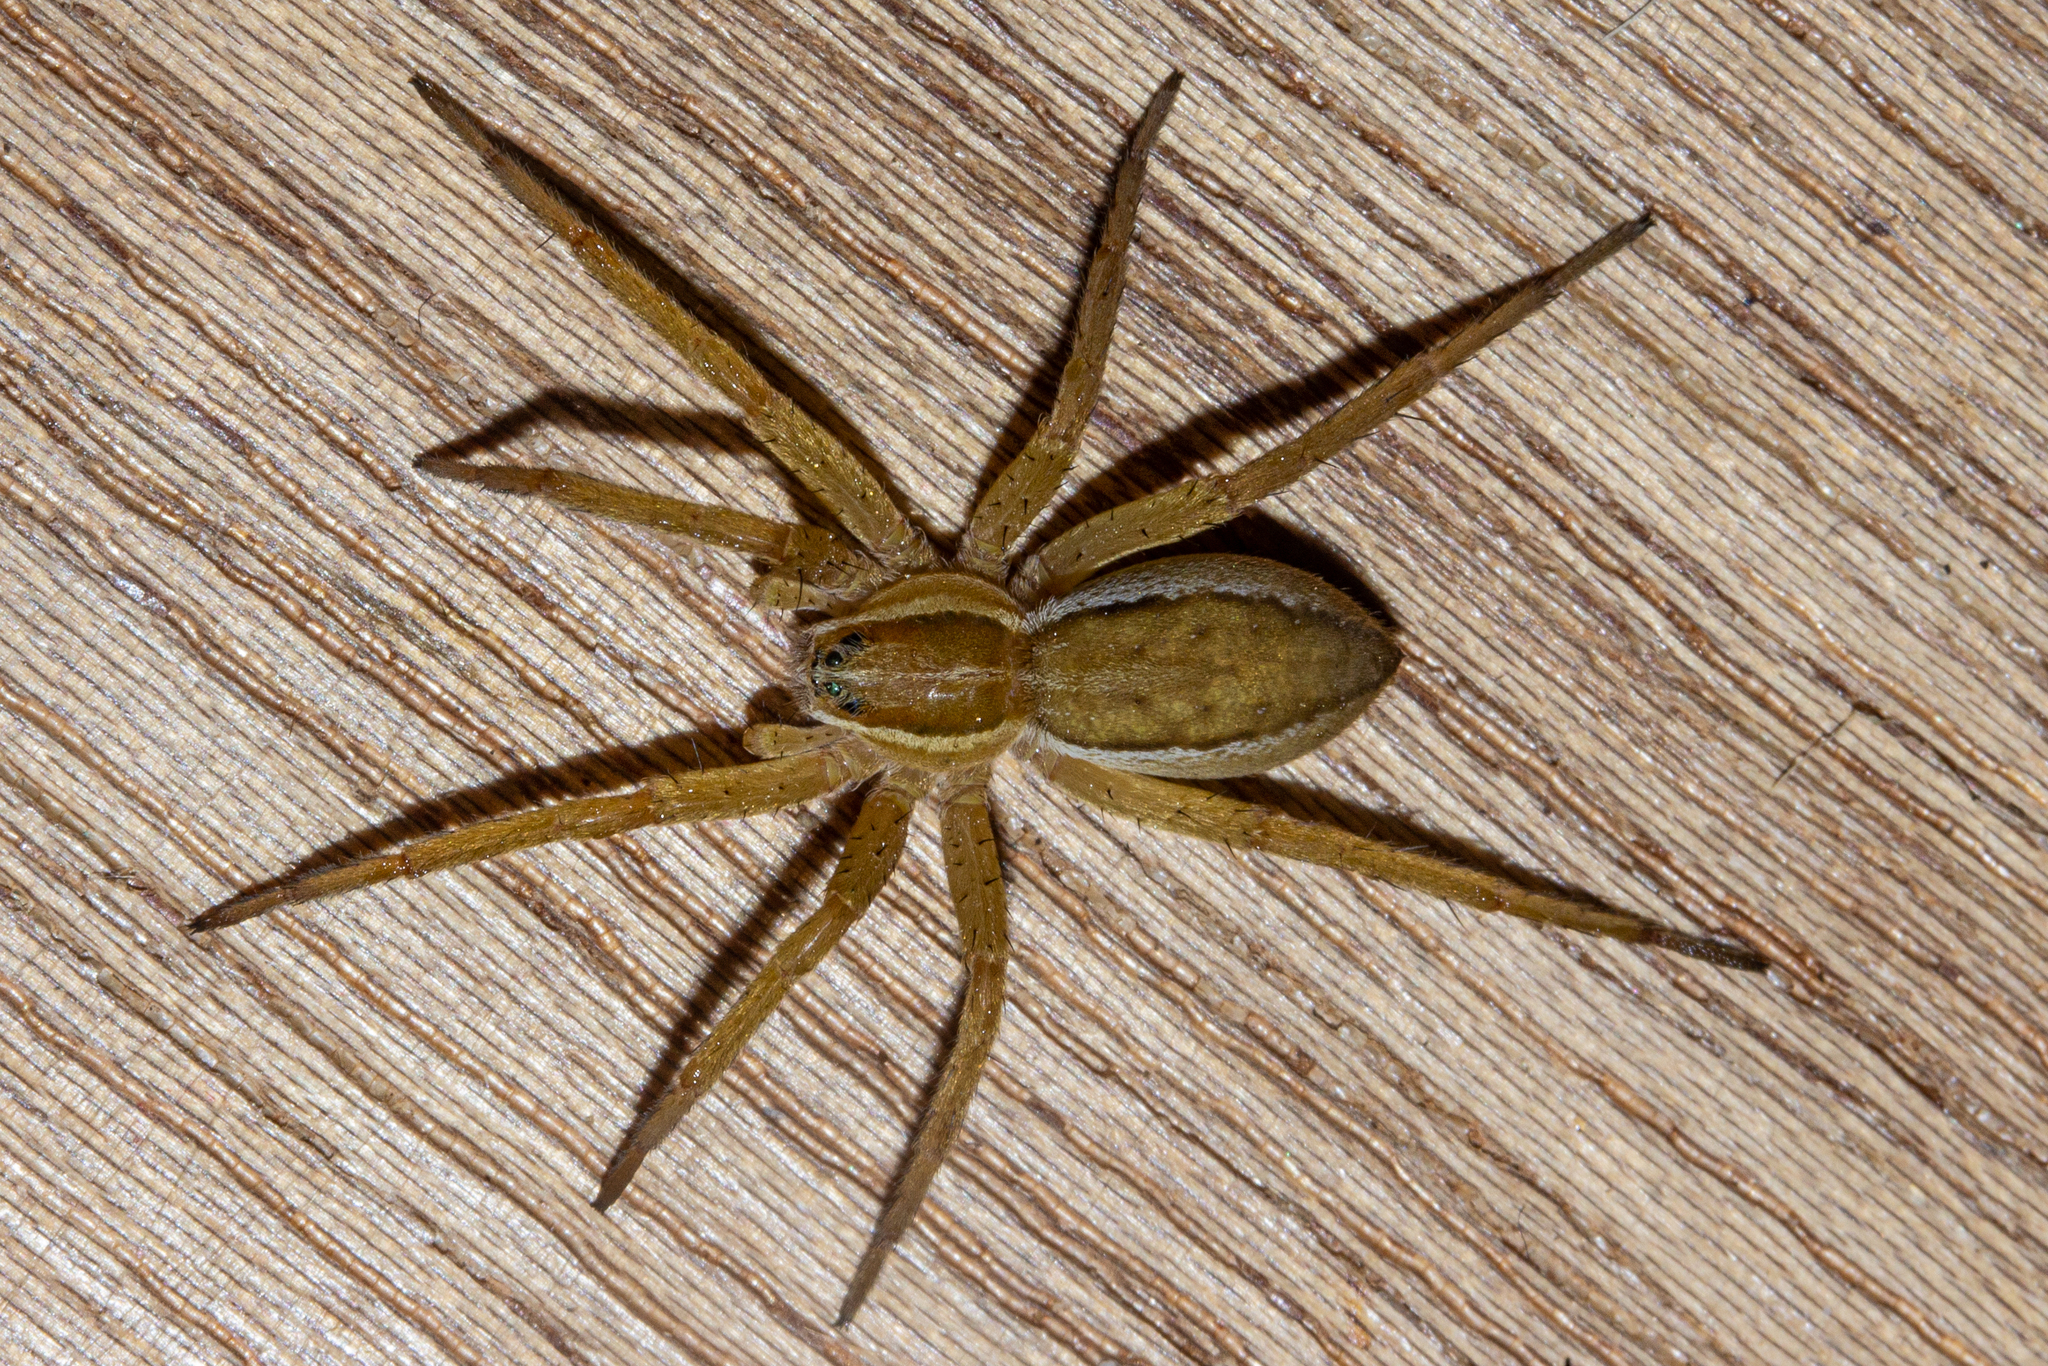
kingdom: Animalia
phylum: Arthropoda
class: Arachnida
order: Araneae
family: Pisauridae
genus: Dolomedes
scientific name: Dolomedes minor
